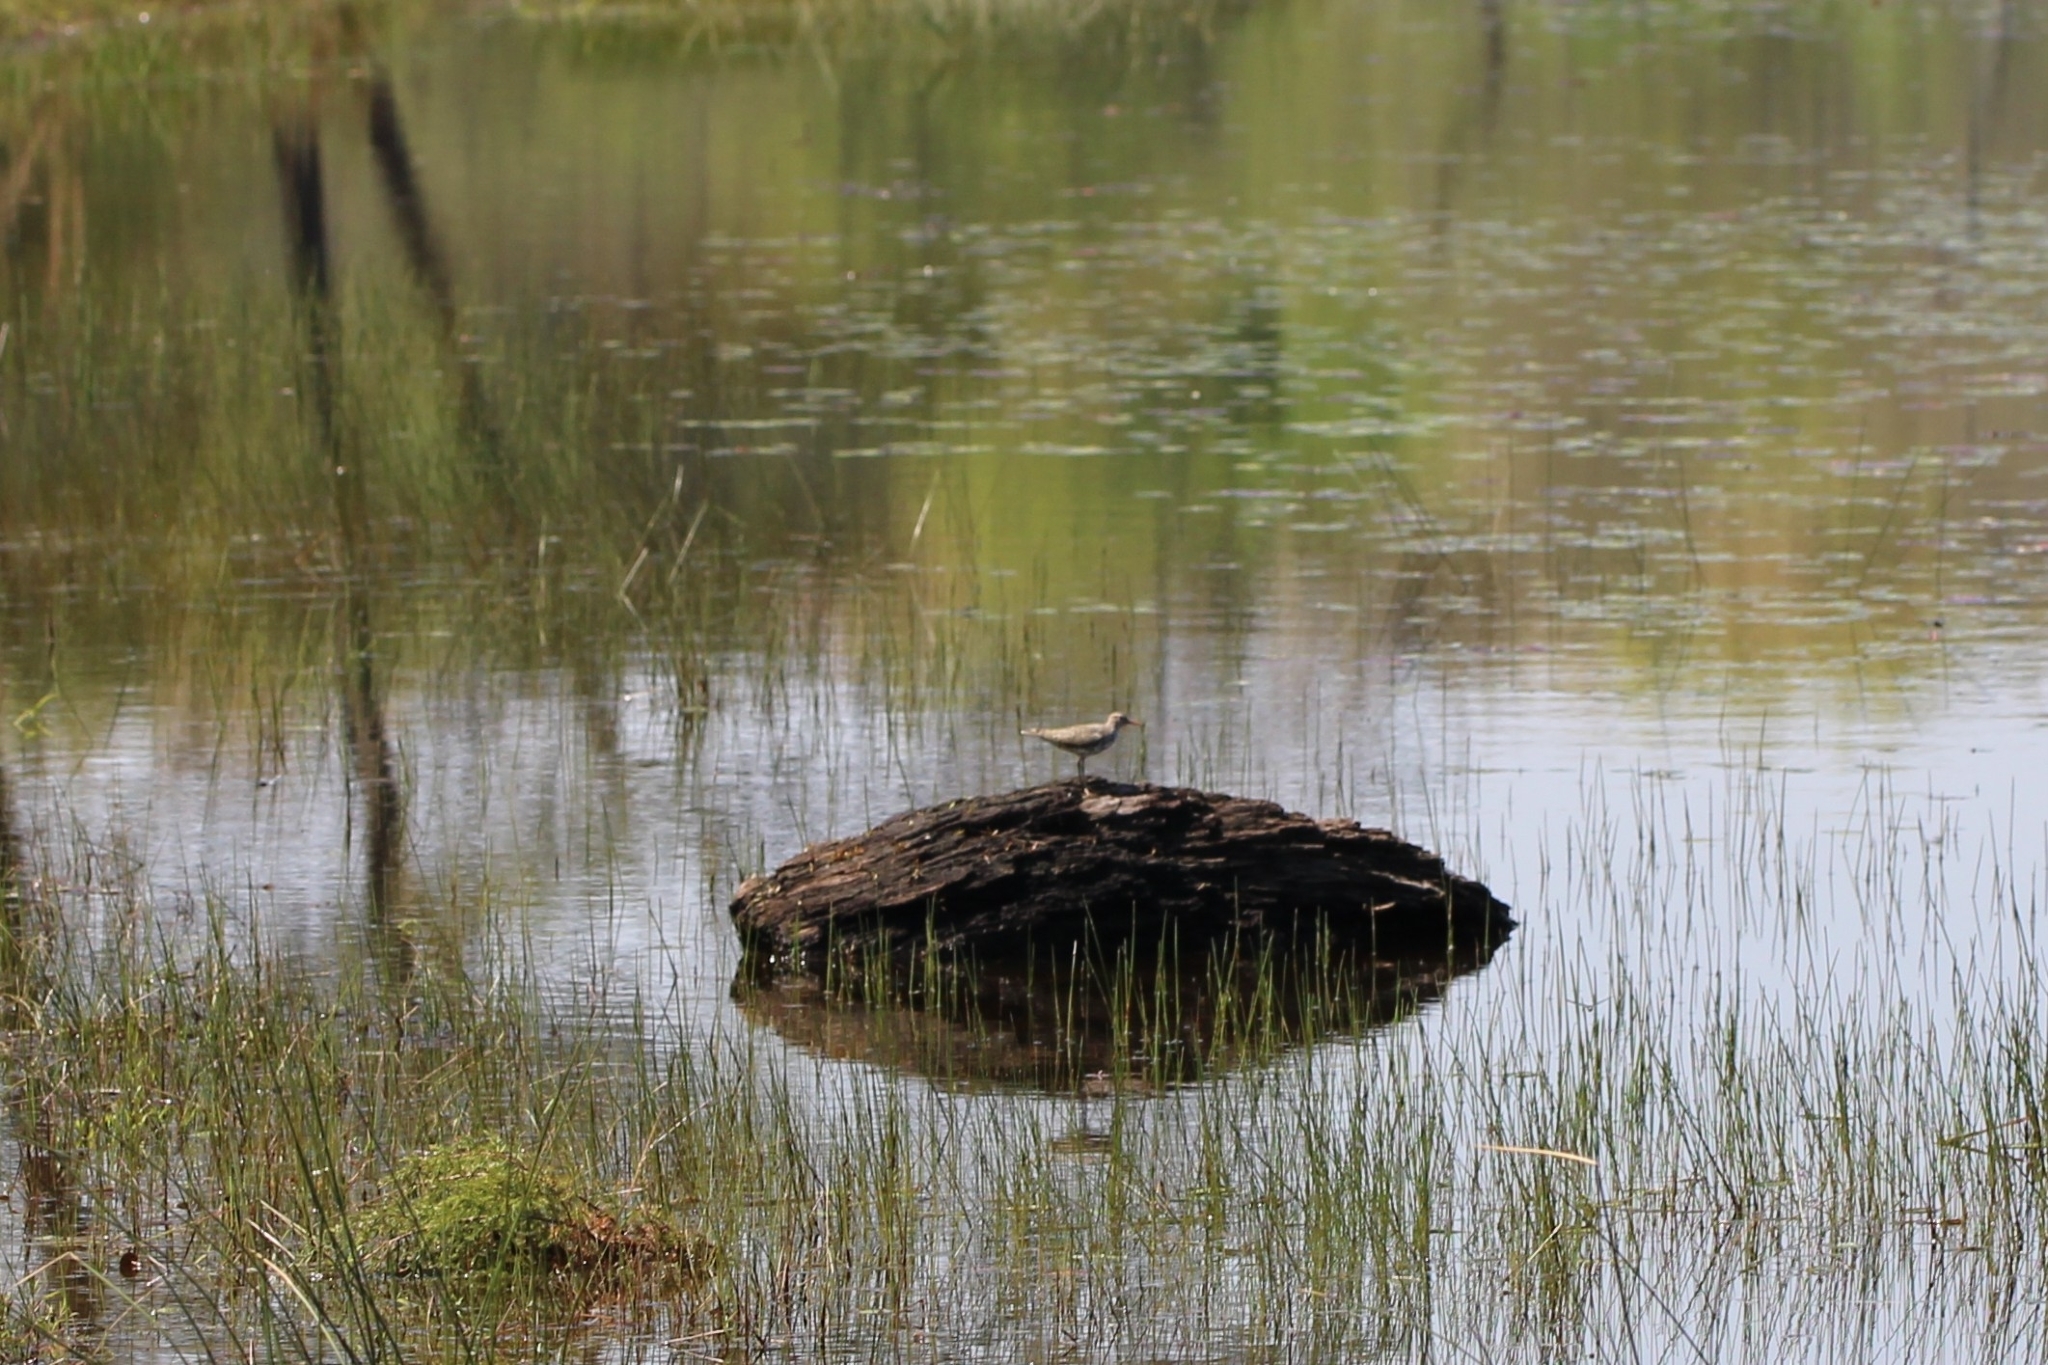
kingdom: Animalia
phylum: Chordata
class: Aves
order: Charadriiformes
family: Scolopacidae
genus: Actitis
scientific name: Actitis macularius
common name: Spotted sandpiper
